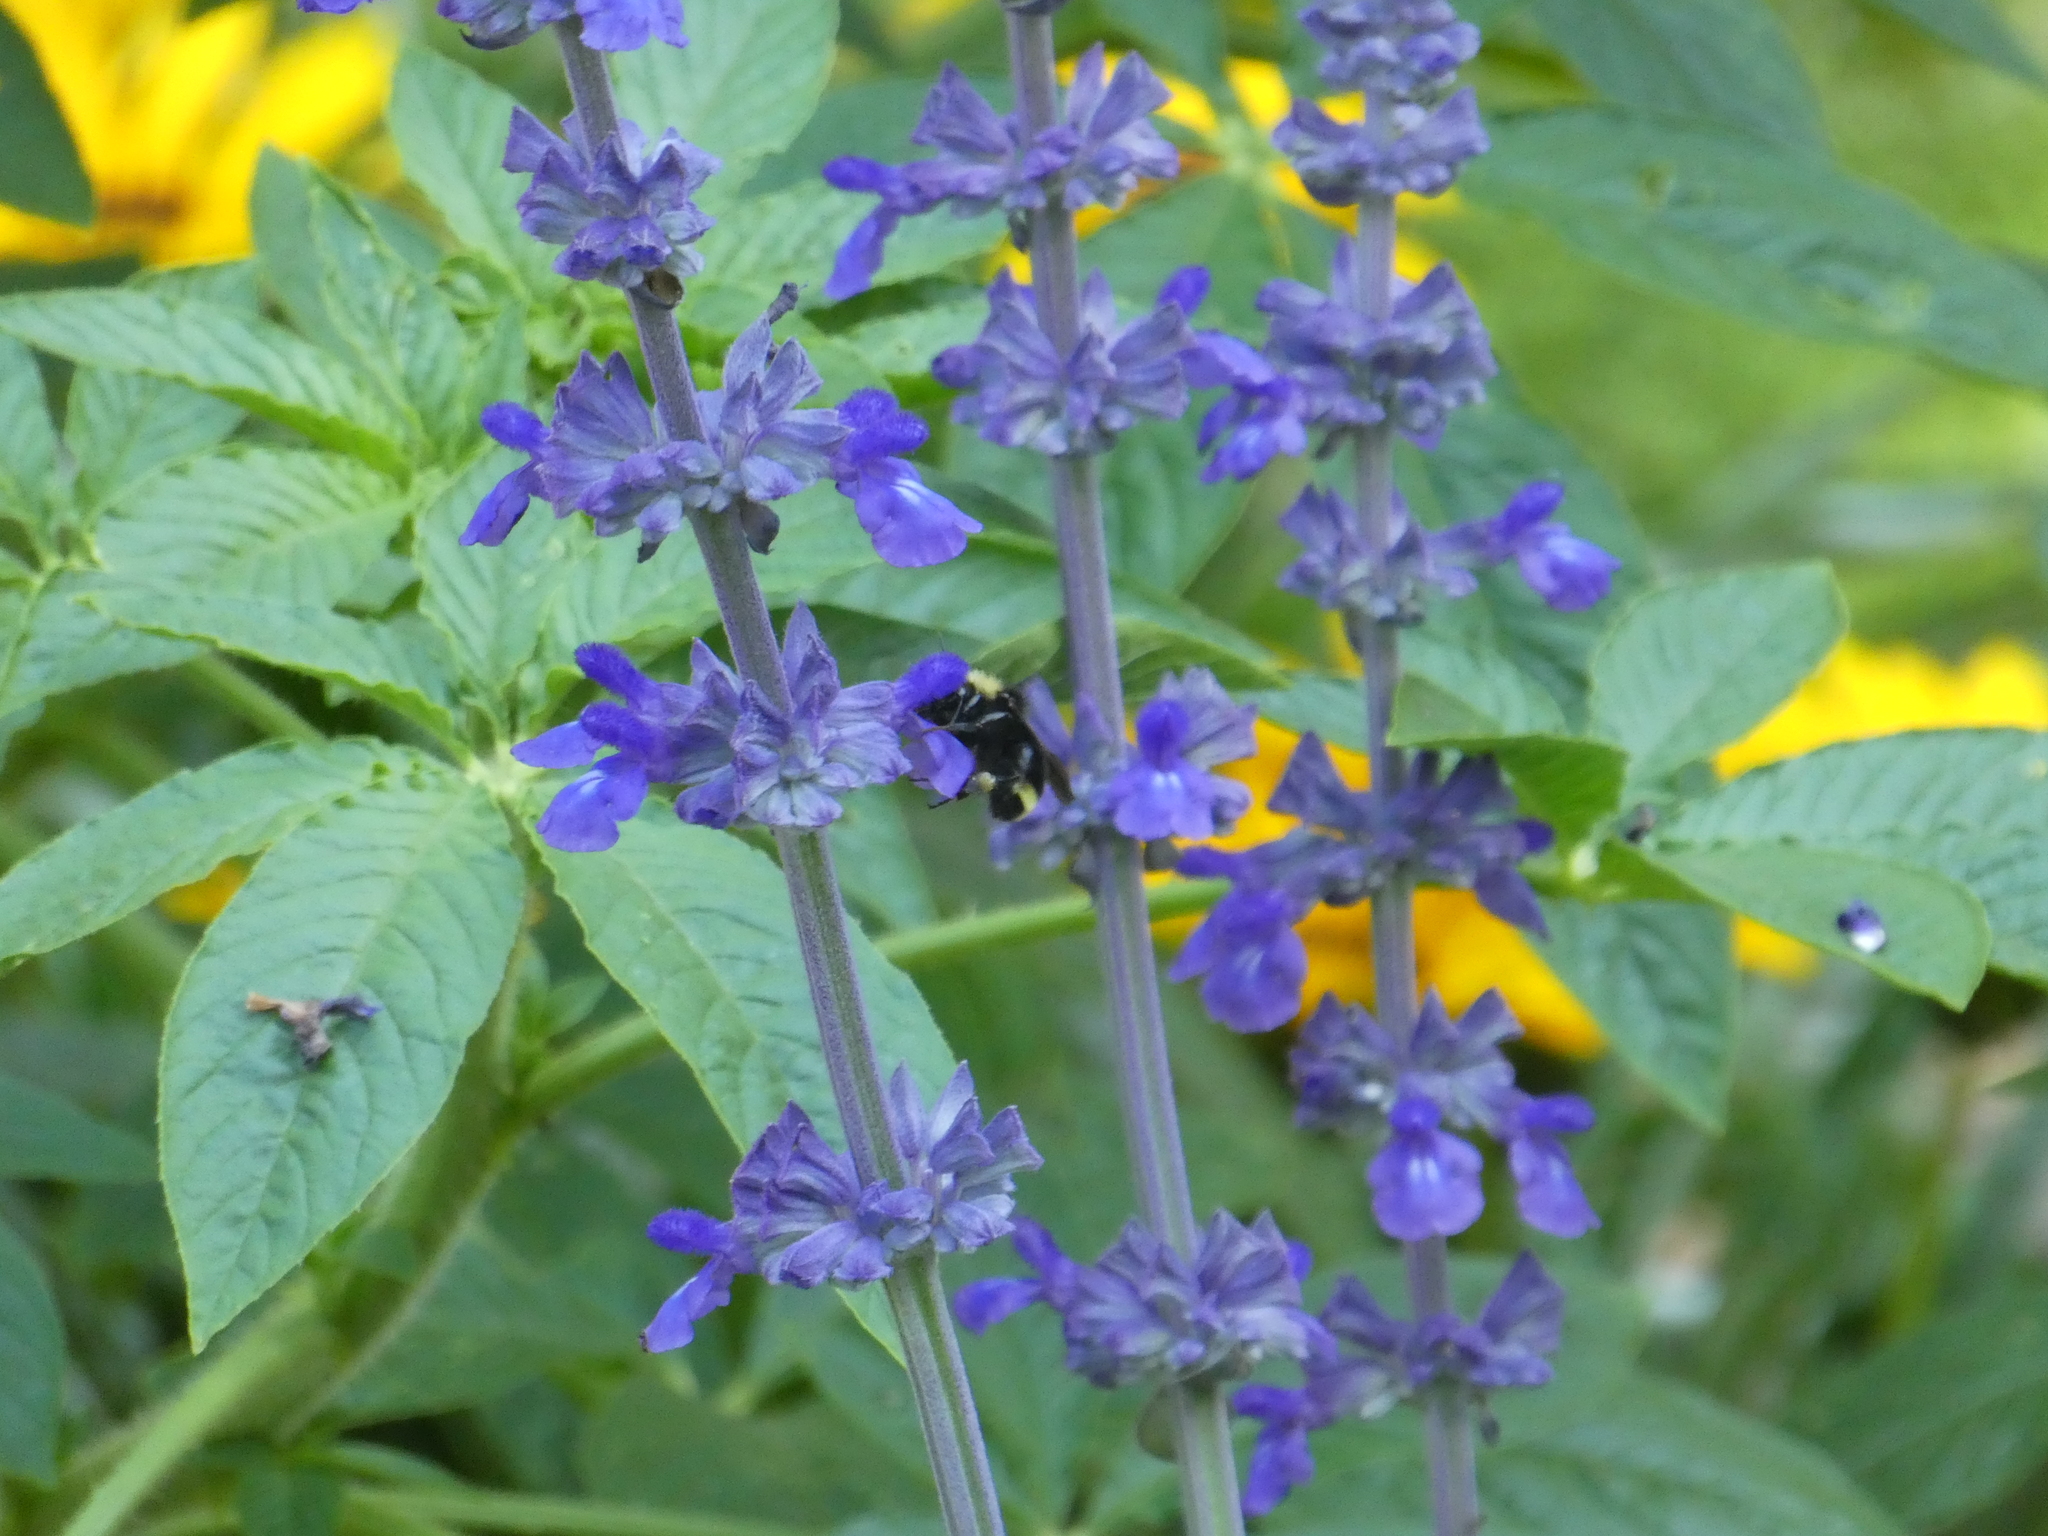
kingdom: Animalia
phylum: Arthropoda
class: Insecta
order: Hymenoptera
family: Apidae
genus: Bombus
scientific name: Bombus vosnesenskii
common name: Vosnesensky bumble bee
